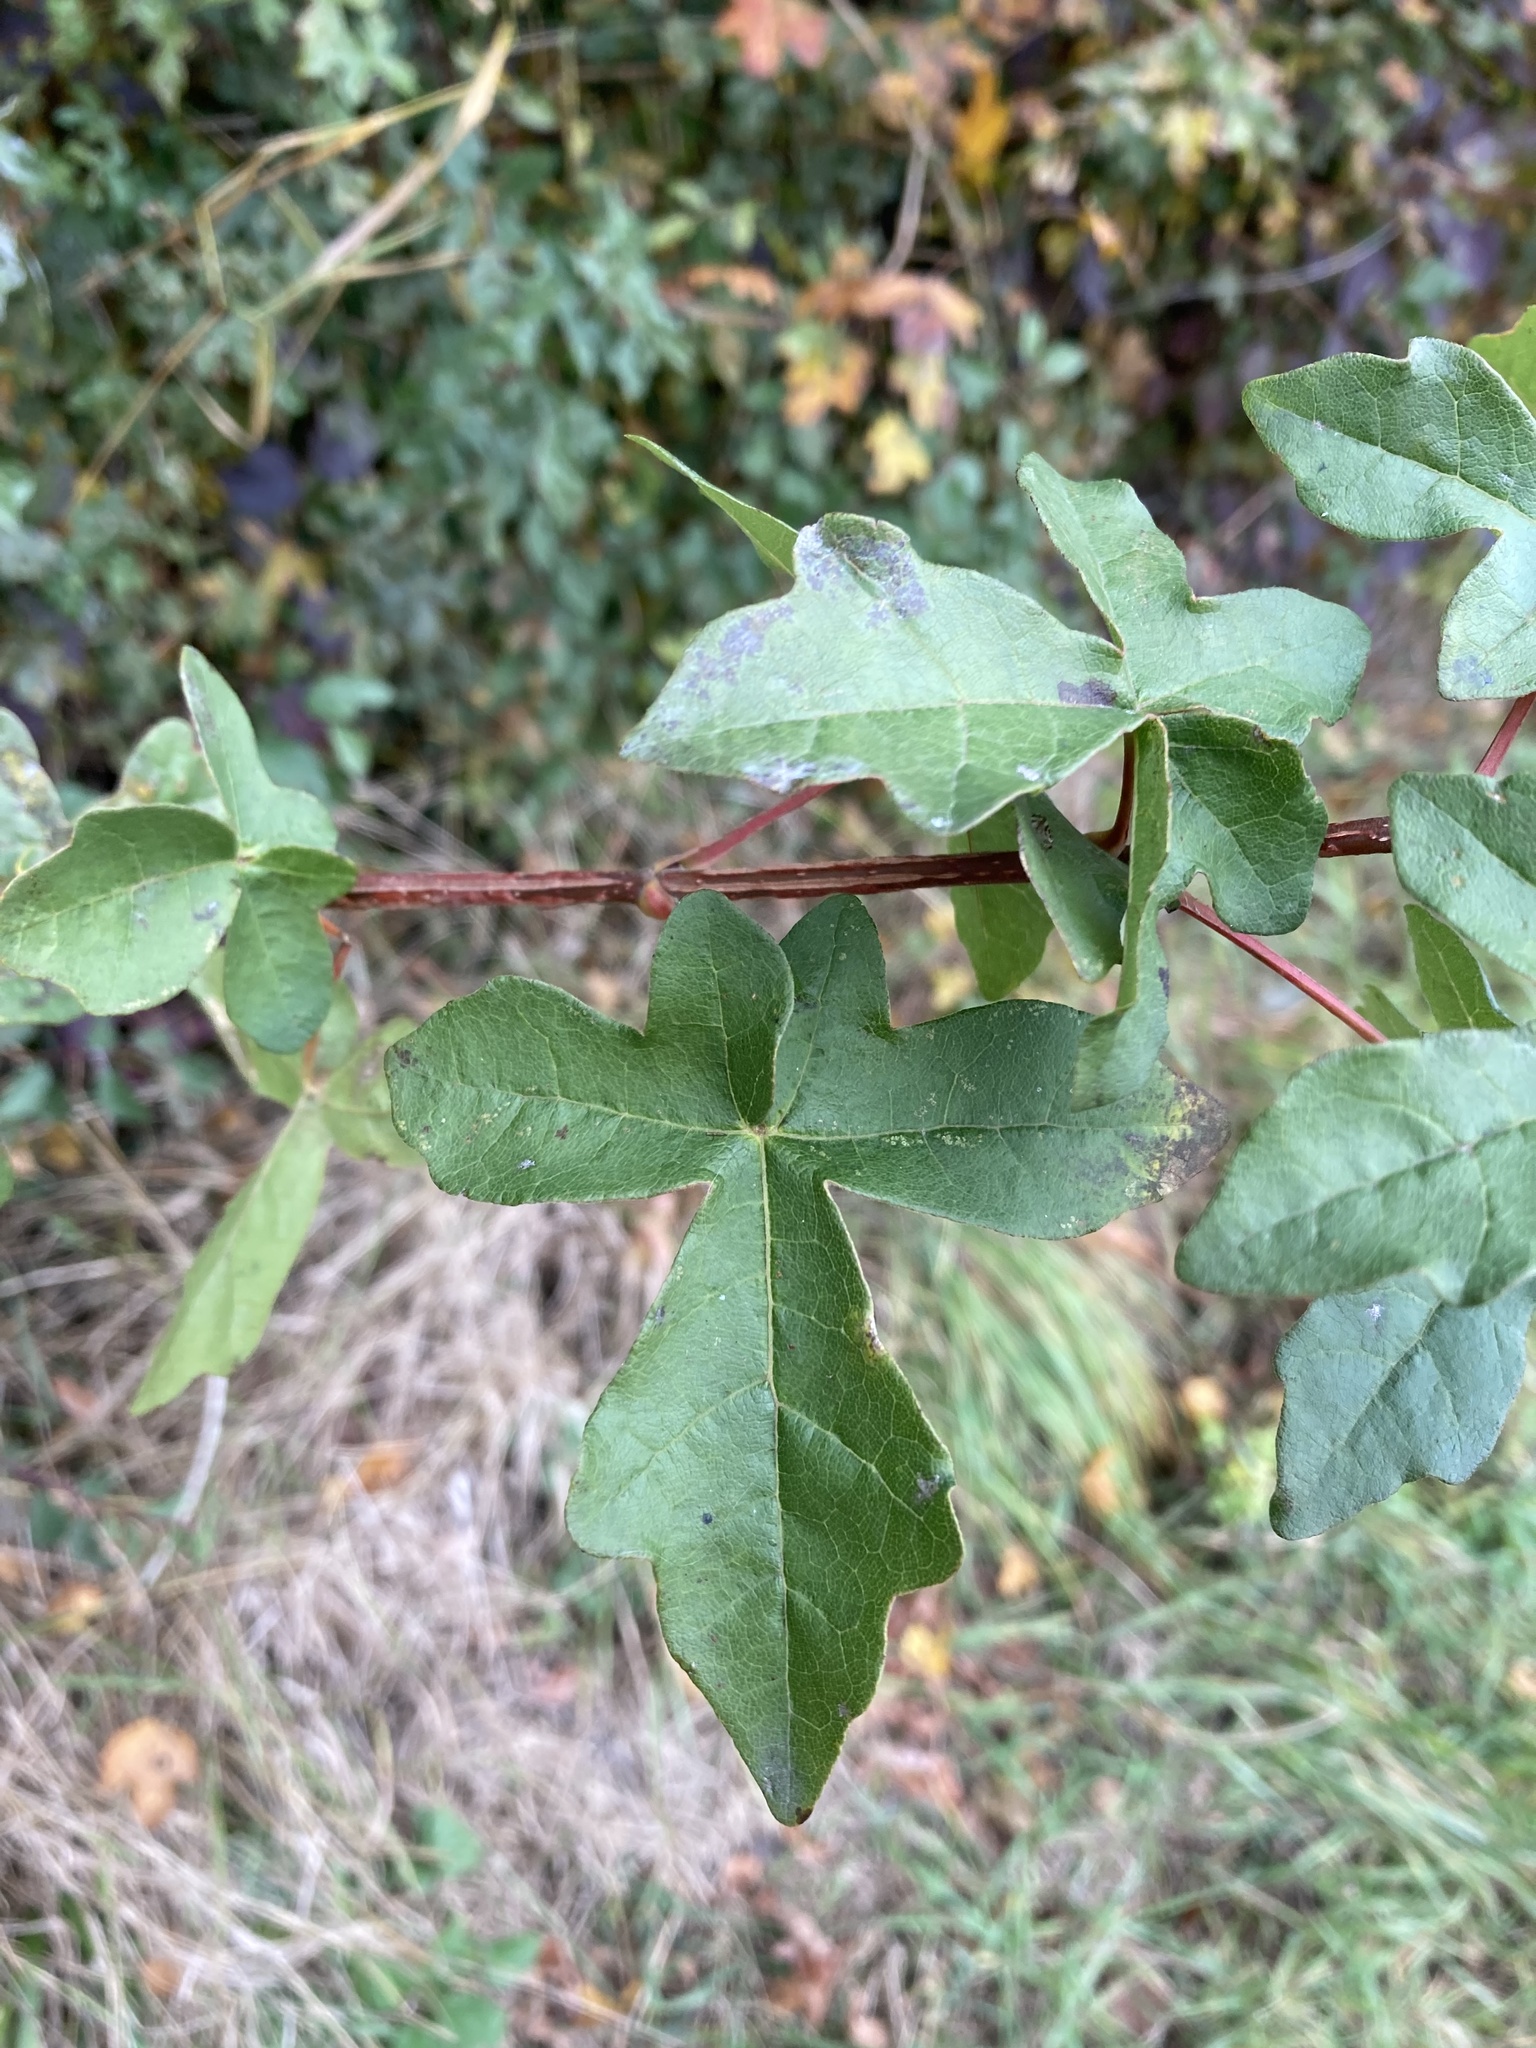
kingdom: Plantae
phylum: Tracheophyta
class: Magnoliopsida
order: Sapindales
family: Sapindaceae
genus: Acer
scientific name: Acer campestre
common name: Field maple
